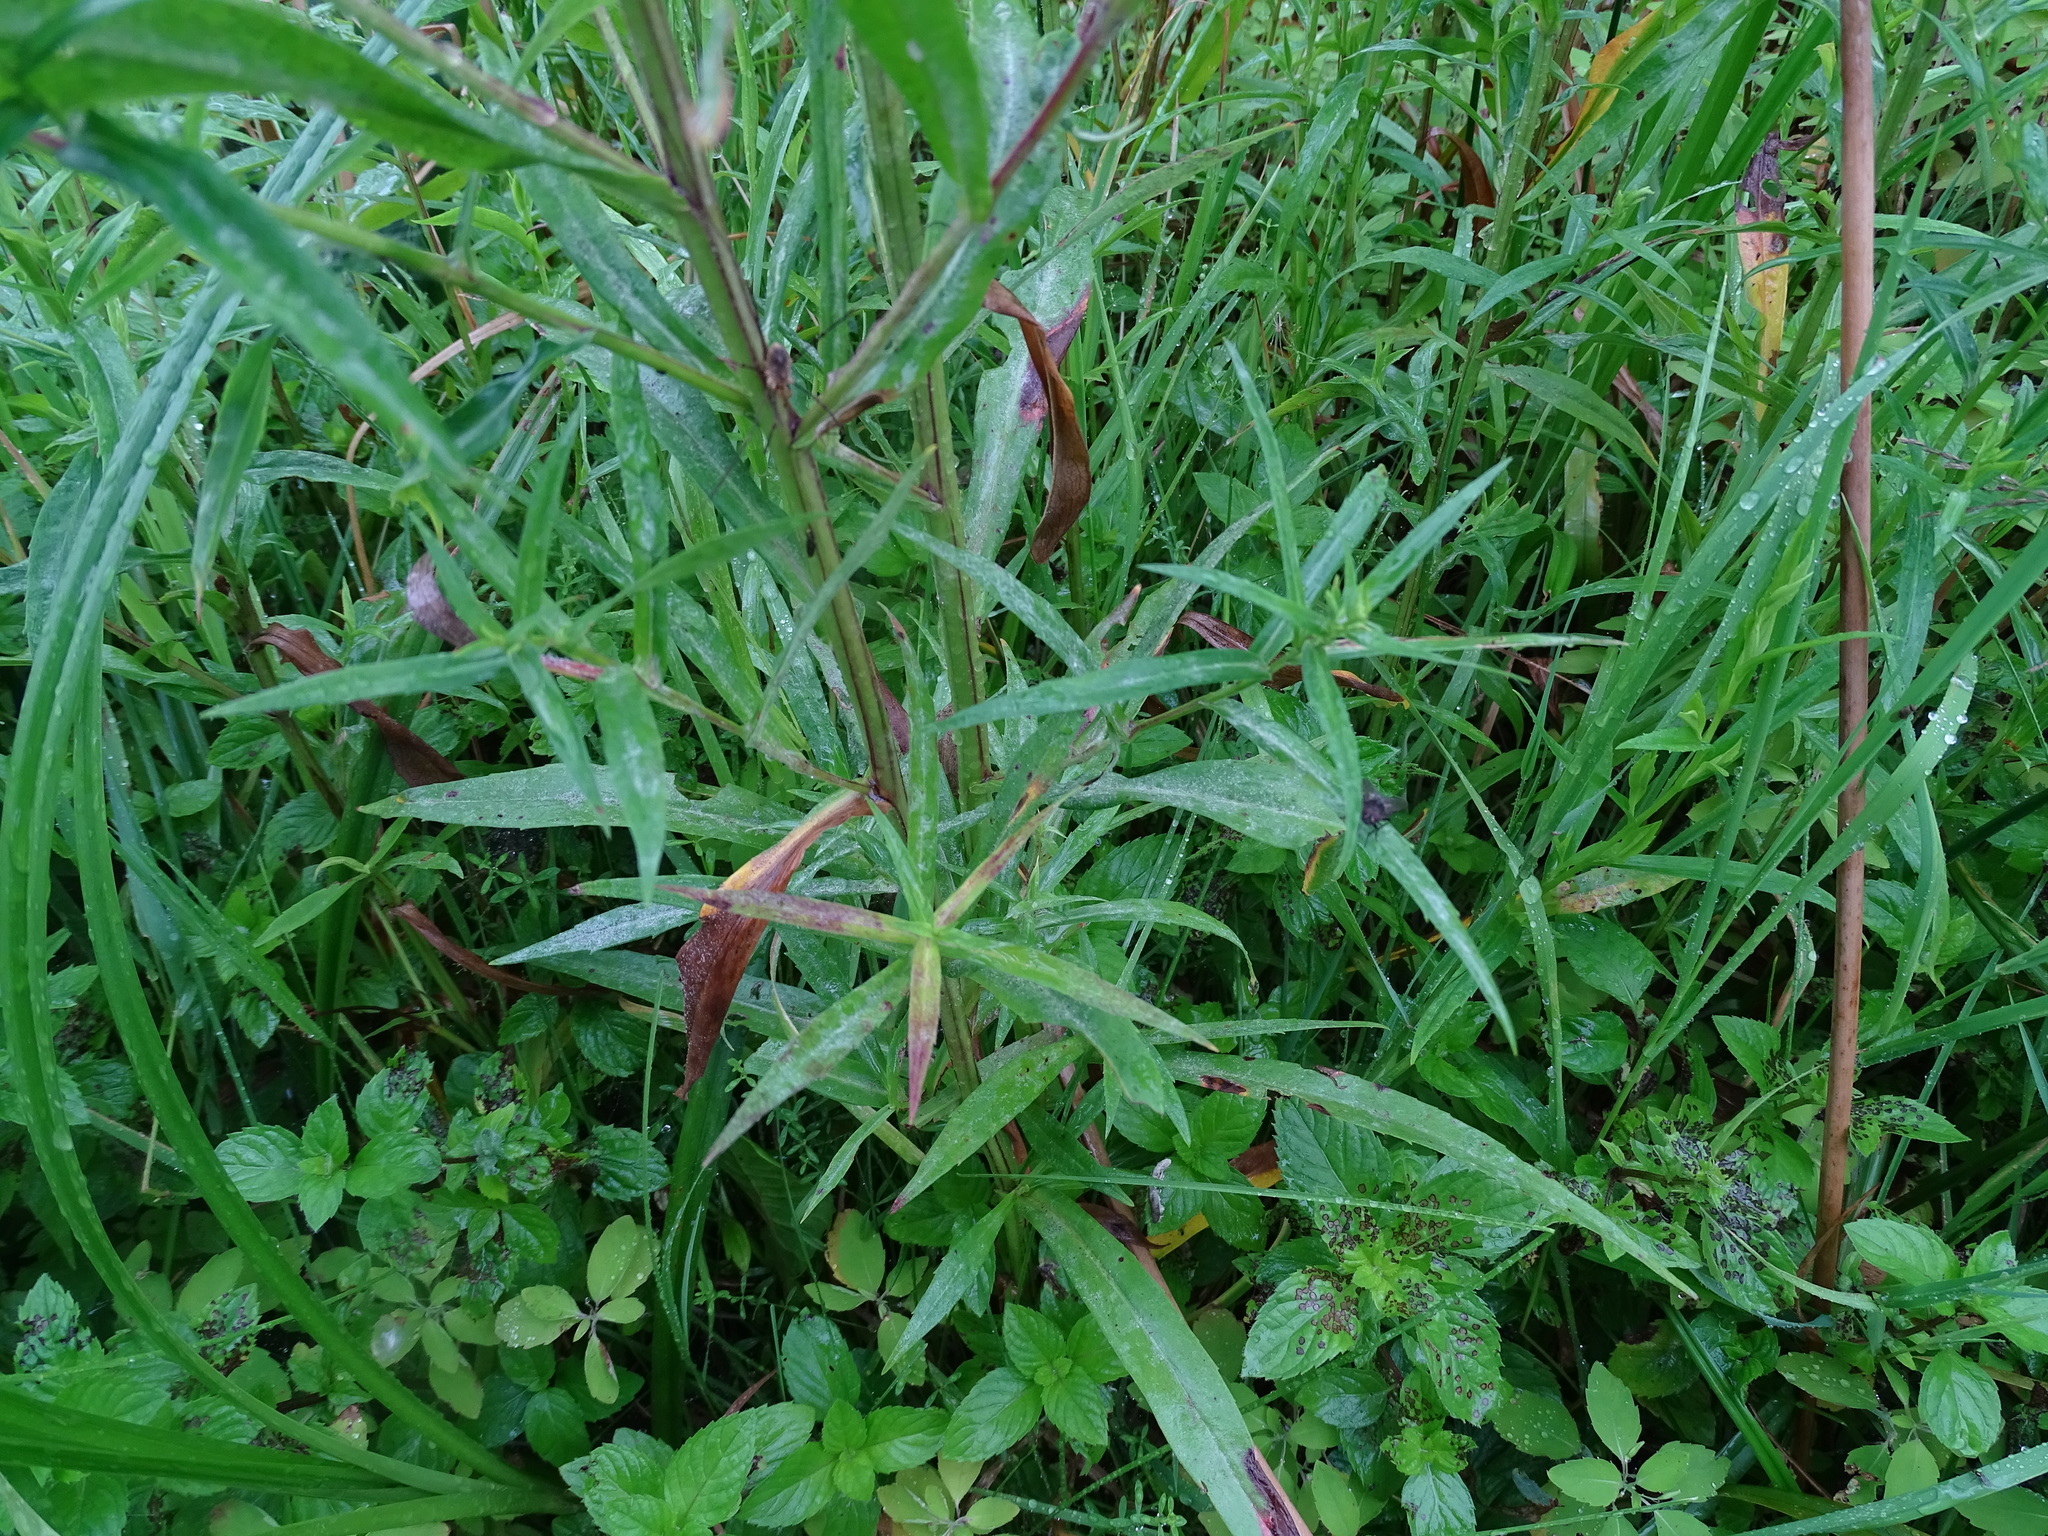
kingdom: Plantae
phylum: Tracheophyta
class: Magnoliopsida
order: Asterales
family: Asteraceae
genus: Symphyotrichum
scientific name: Symphyotrichum lanceolatum
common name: Panicled aster
